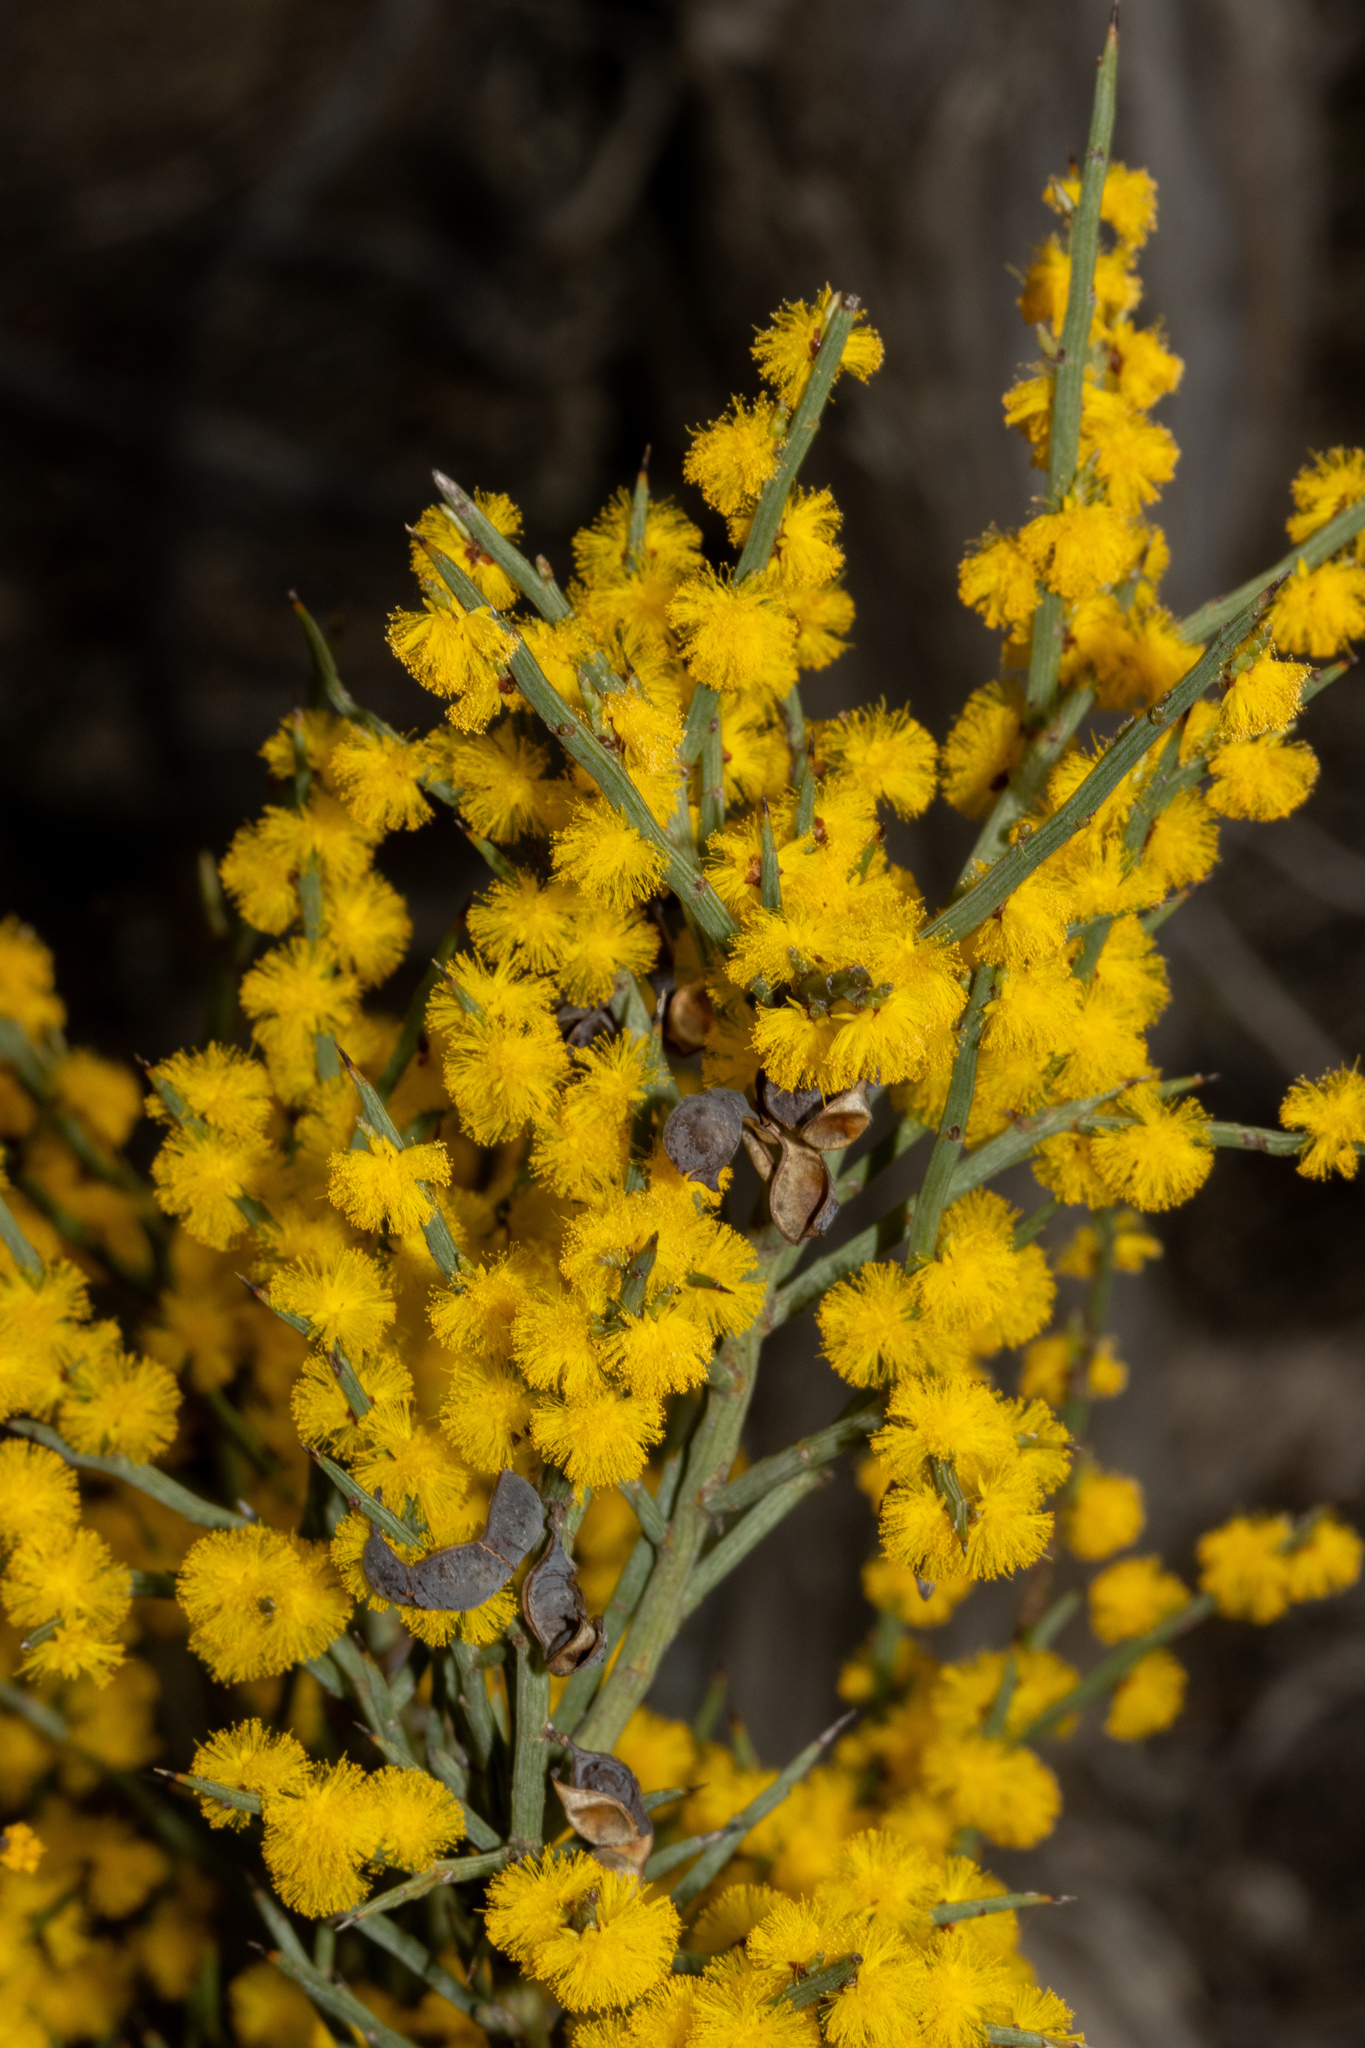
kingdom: Plantae
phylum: Tracheophyta
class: Magnoliopsida
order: Fabales
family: Fabaceae
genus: Acacia
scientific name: Acacia spinescens
